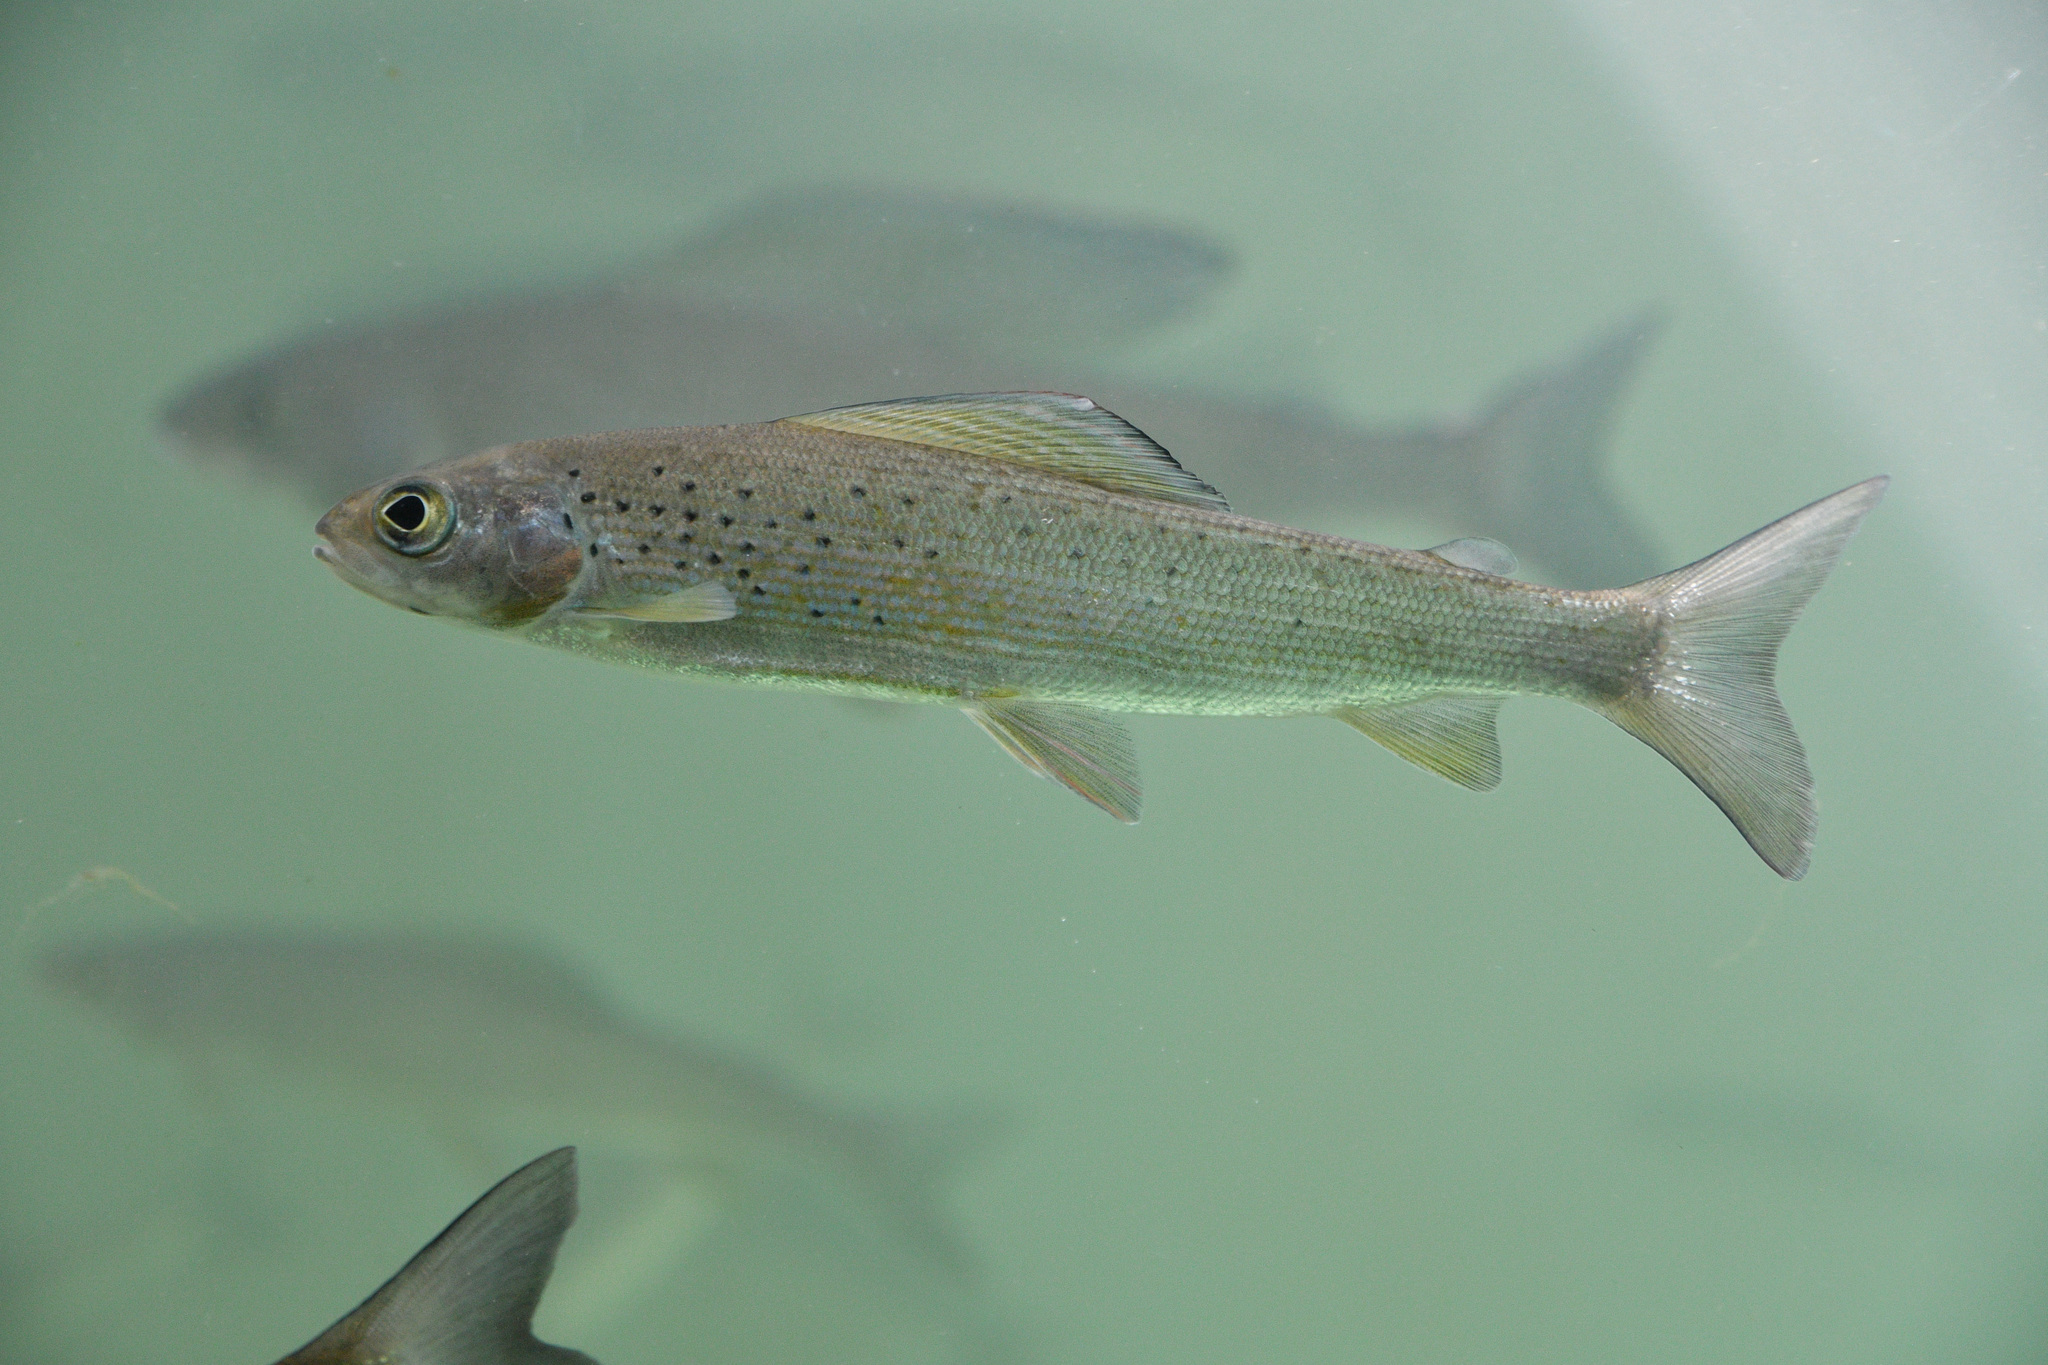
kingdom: Animalia
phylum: Chordata
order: Salmoniformes
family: Salmonidae
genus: Thymallus
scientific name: Thymallus arcticus
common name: Arctic grayling
